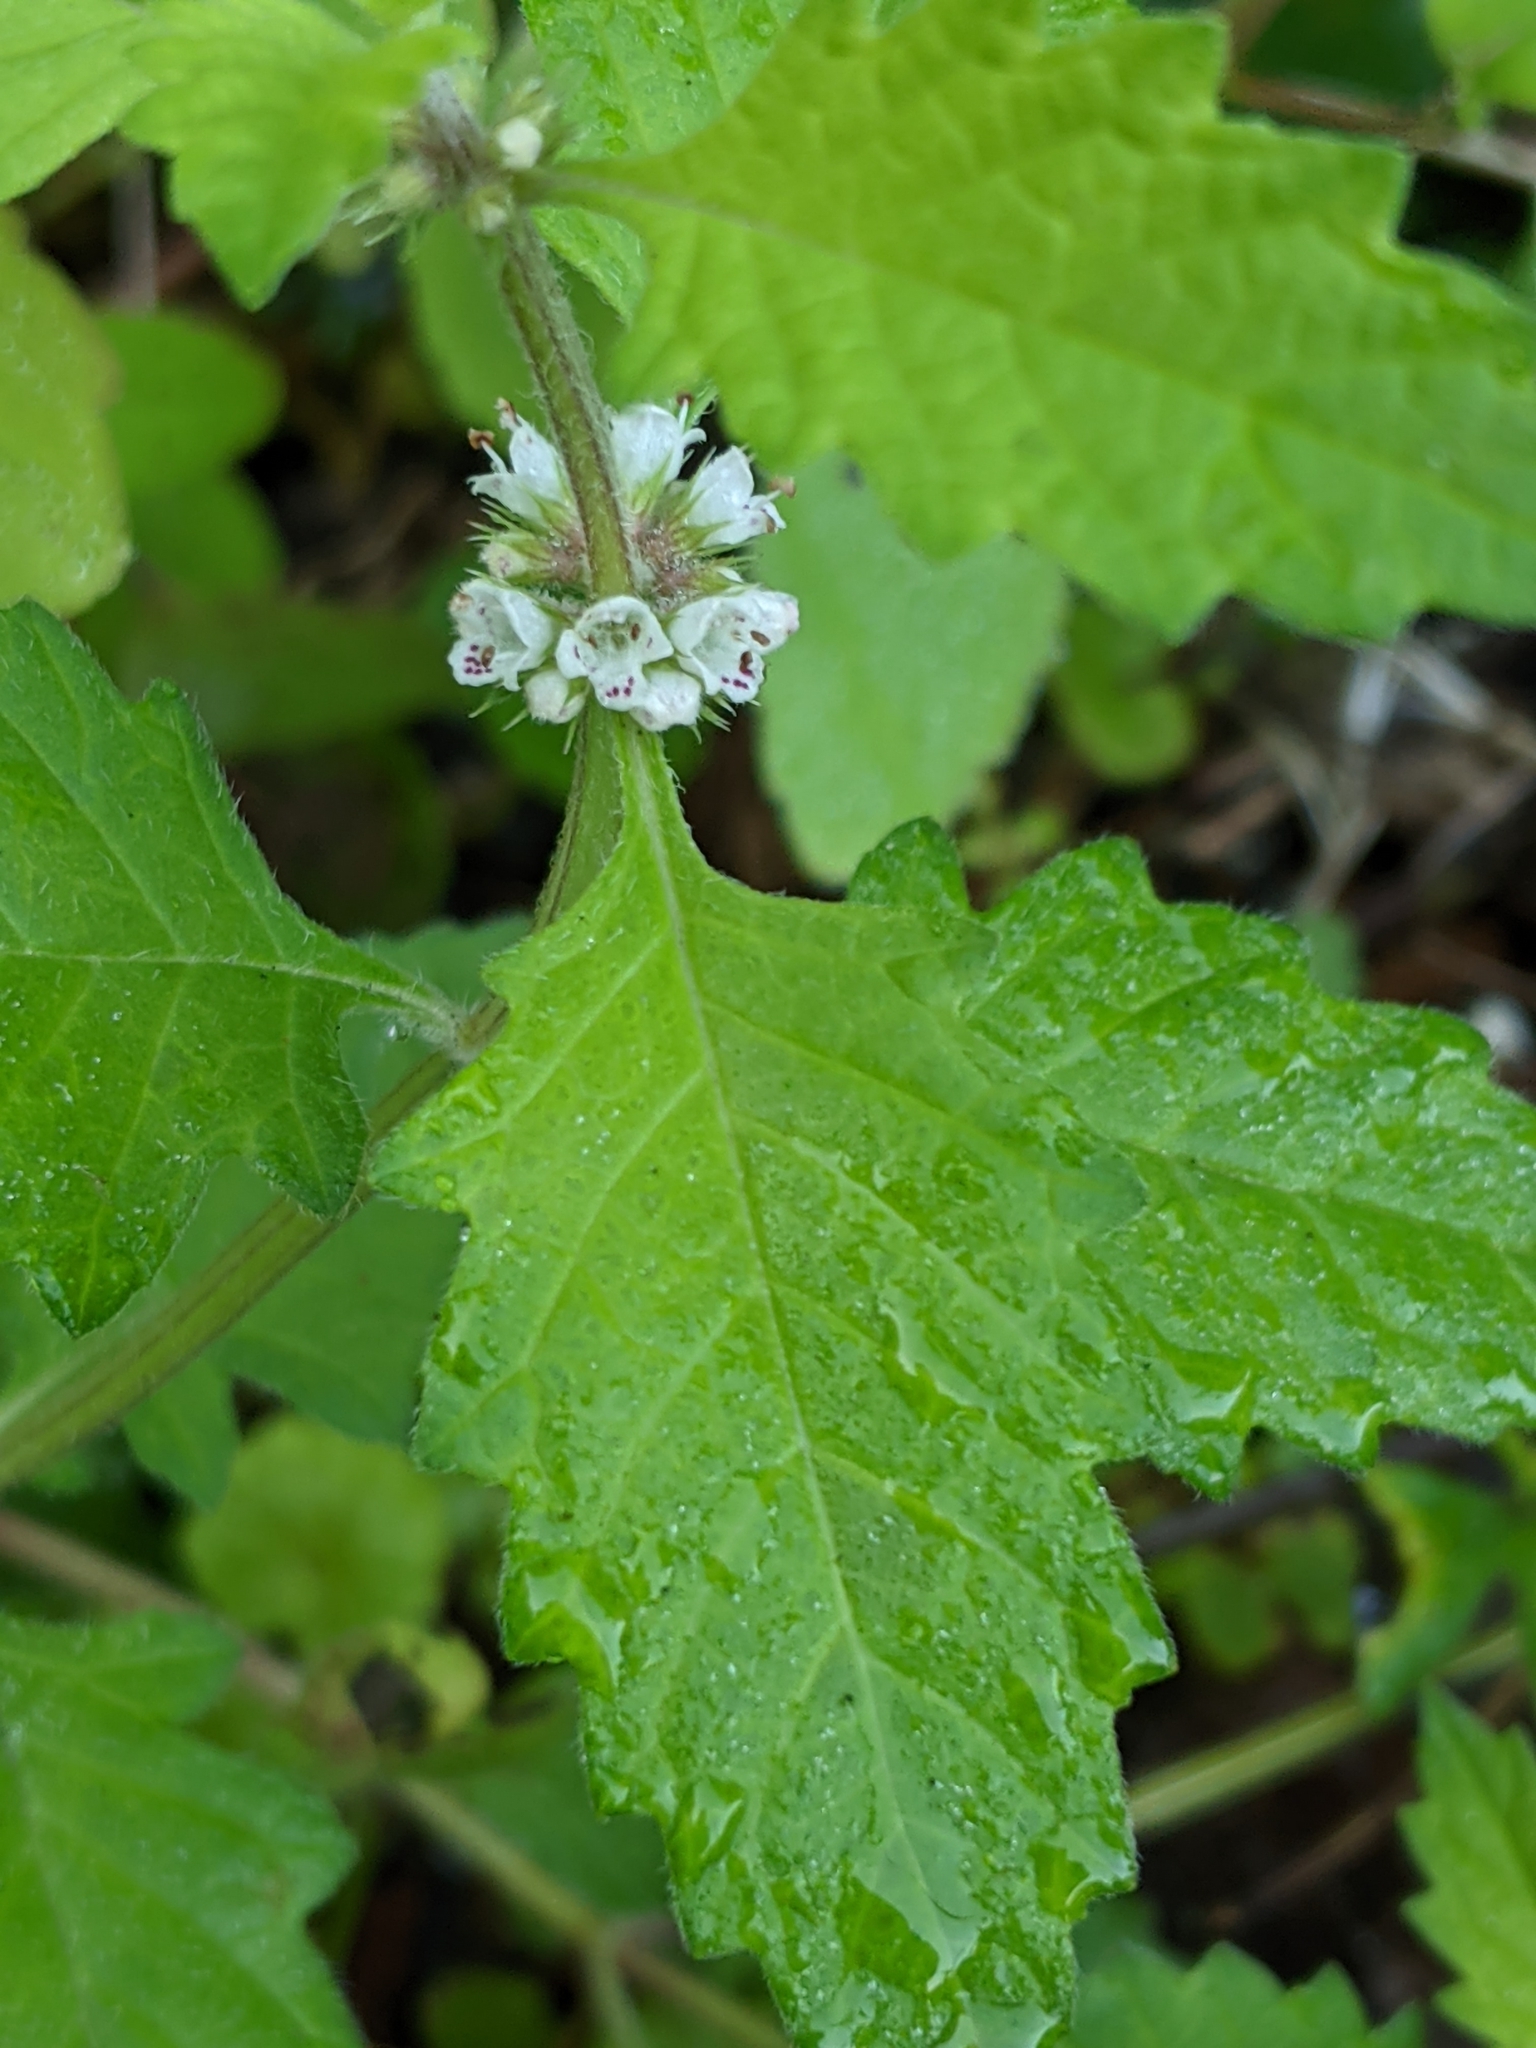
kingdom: Plantae
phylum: Tracheophyta
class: Magnoliopsida
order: Lamiales
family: Lamiaceae
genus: Lycopus
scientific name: Lycopus europaeus
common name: European bugleweed
